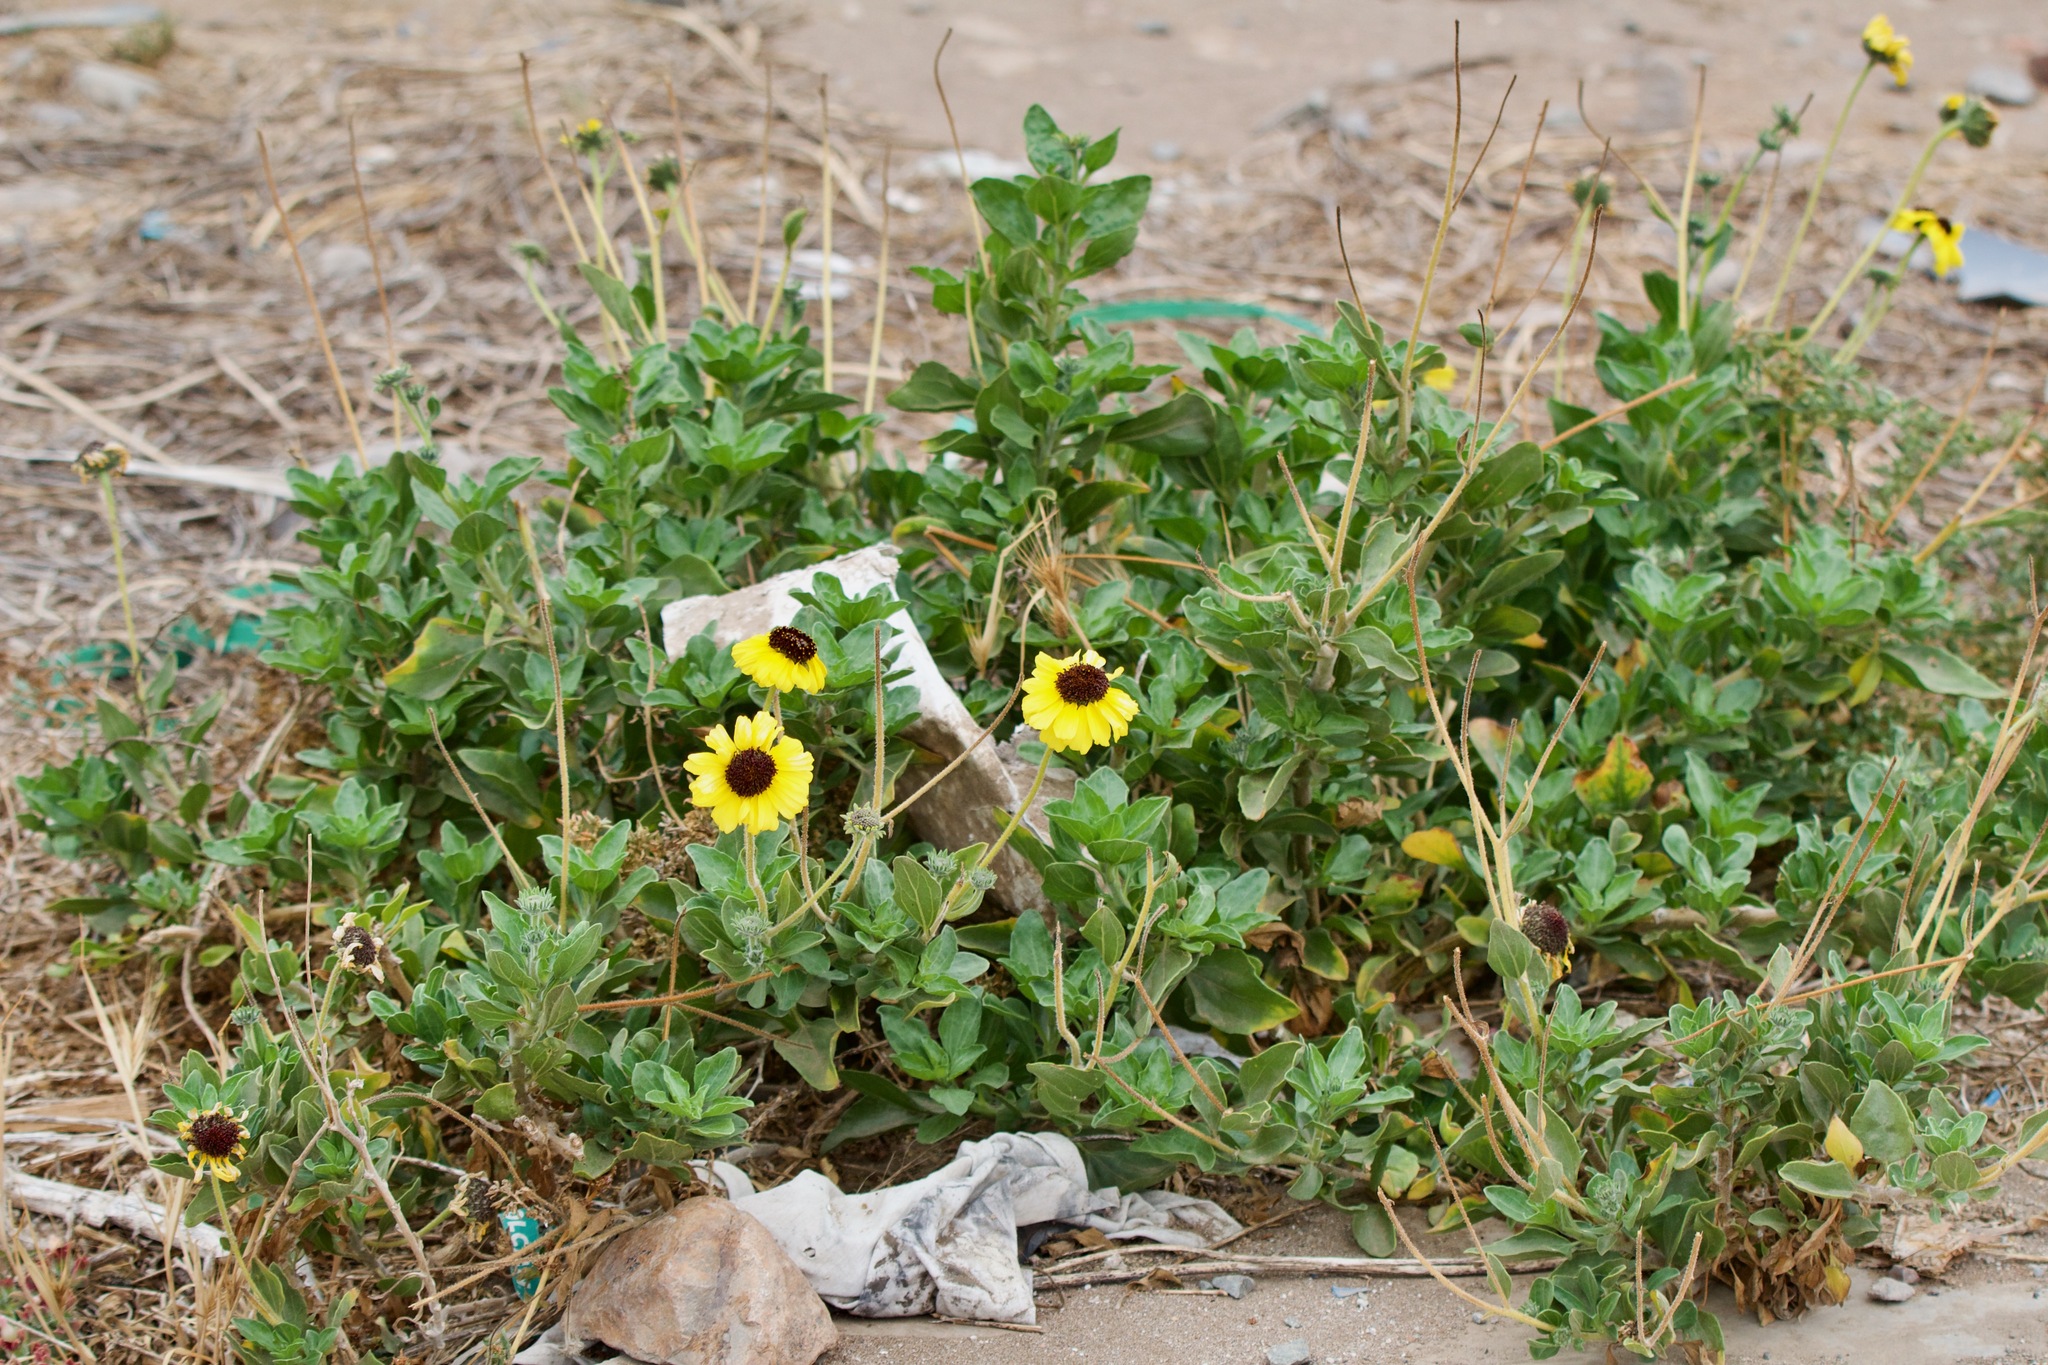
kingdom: Plantae
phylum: Tracheophyta
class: Magnoliopsida
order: Asterales
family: Asteraceae
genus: Encelia
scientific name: Encelia canescens
